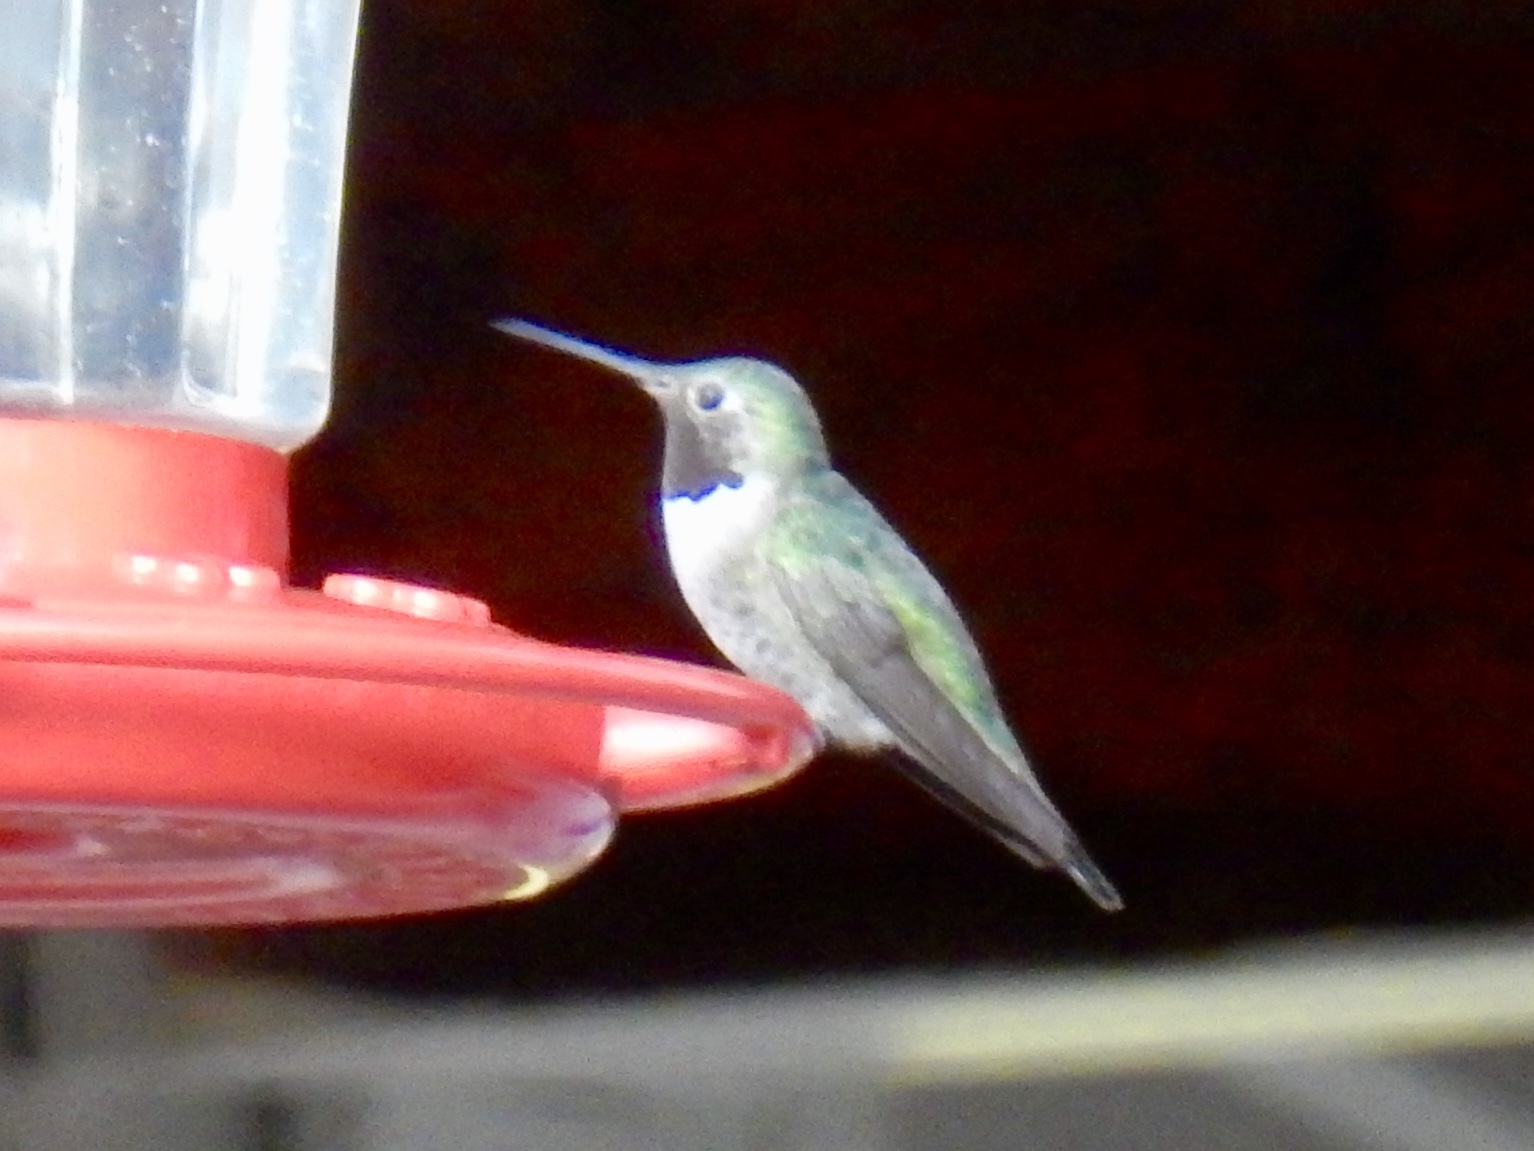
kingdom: Animalia
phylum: Chordata
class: Aves
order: Apodiformes
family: Trochilidae
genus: Selasphorus
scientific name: Selasphorus platycercus
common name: Broad-tailed hummingbird
